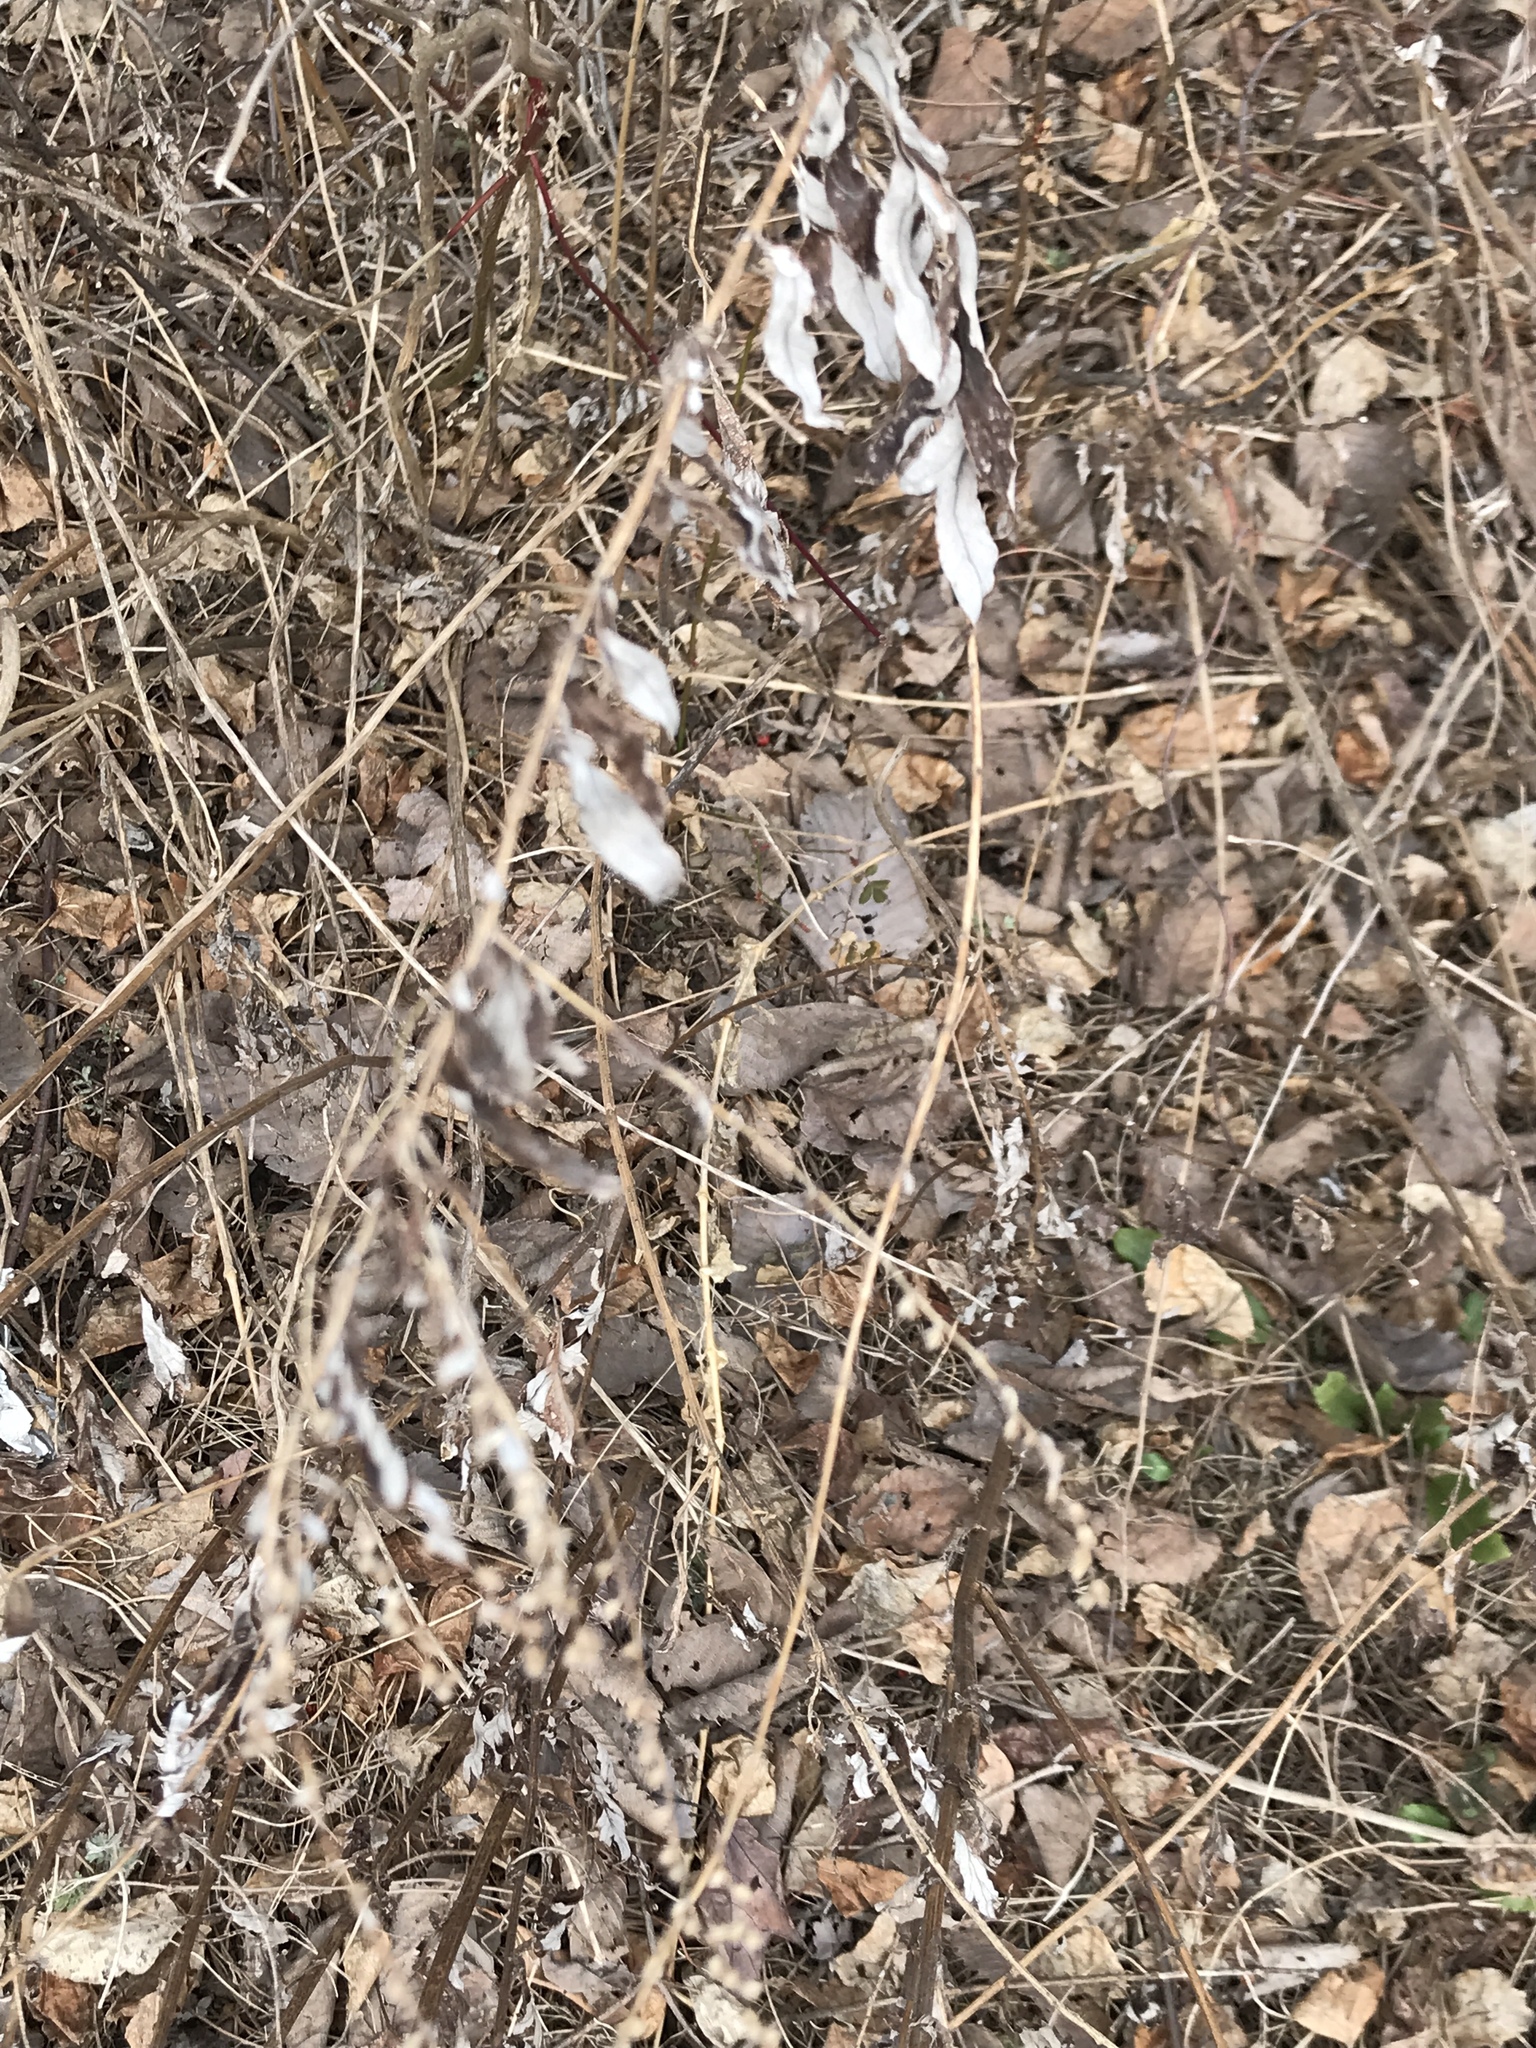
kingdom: Plantae
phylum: Tracheophyta
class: Magnoliopsida
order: Asterales
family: Asteraceae
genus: Artemisia
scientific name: Artemisia vulgaris
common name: Mugwort
